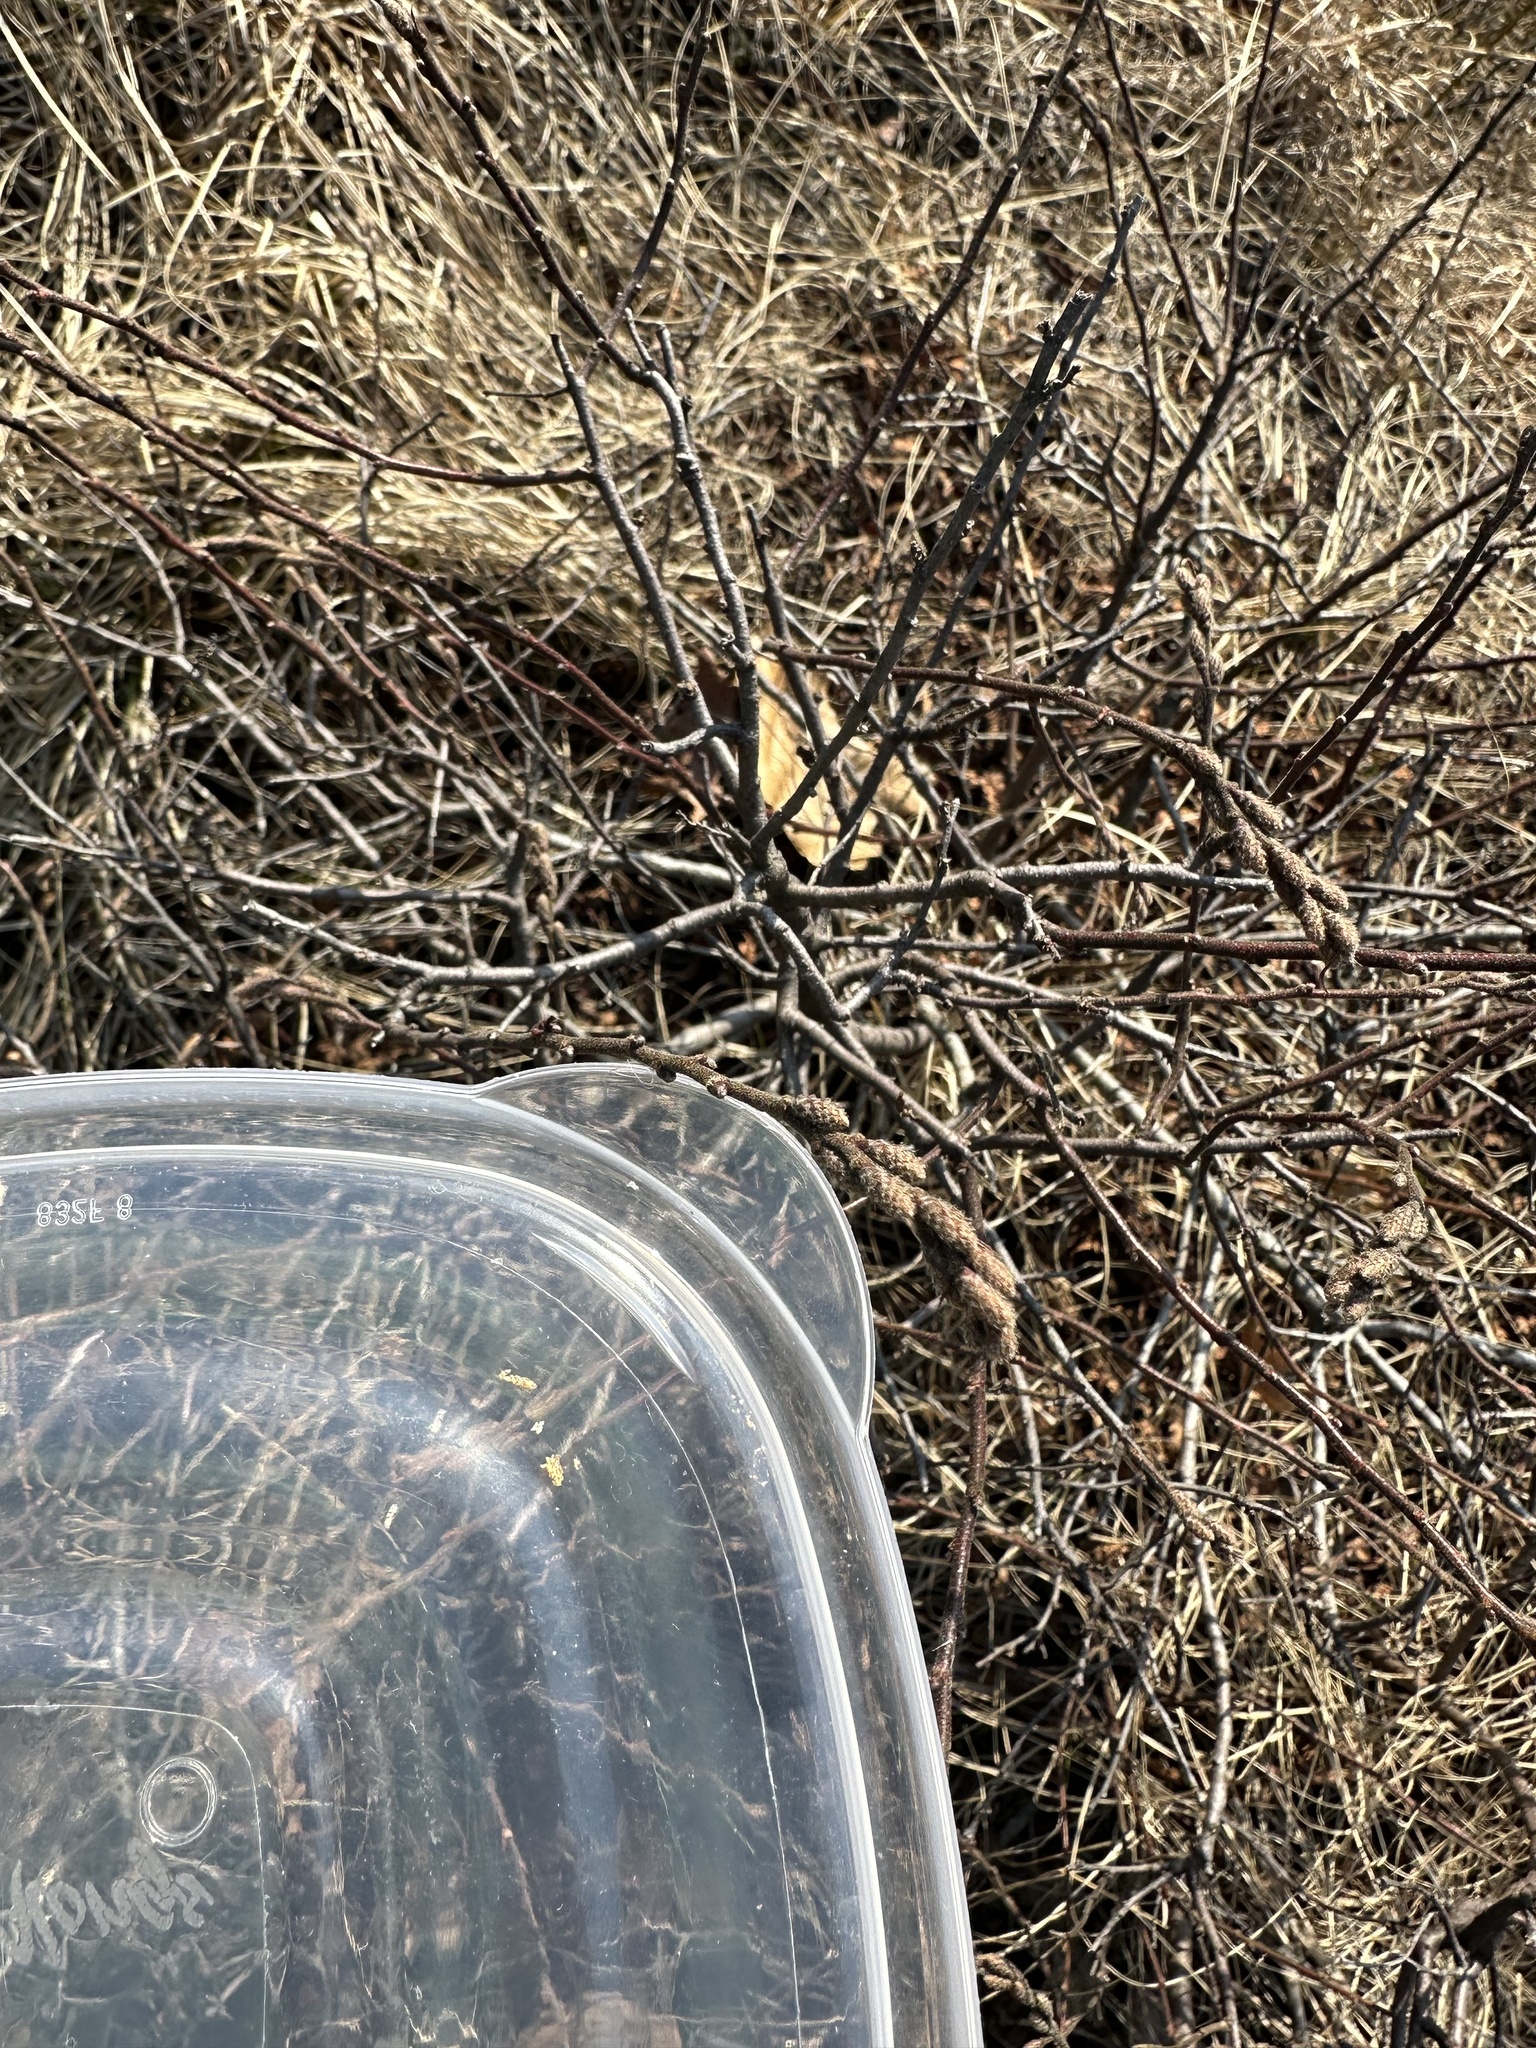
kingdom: Plantae
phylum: Tracheophyta
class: Magnoliopsida
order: Fagales
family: Myricaceae
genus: Comptonia
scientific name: Comptonia peregrina
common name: Sweet-fern
